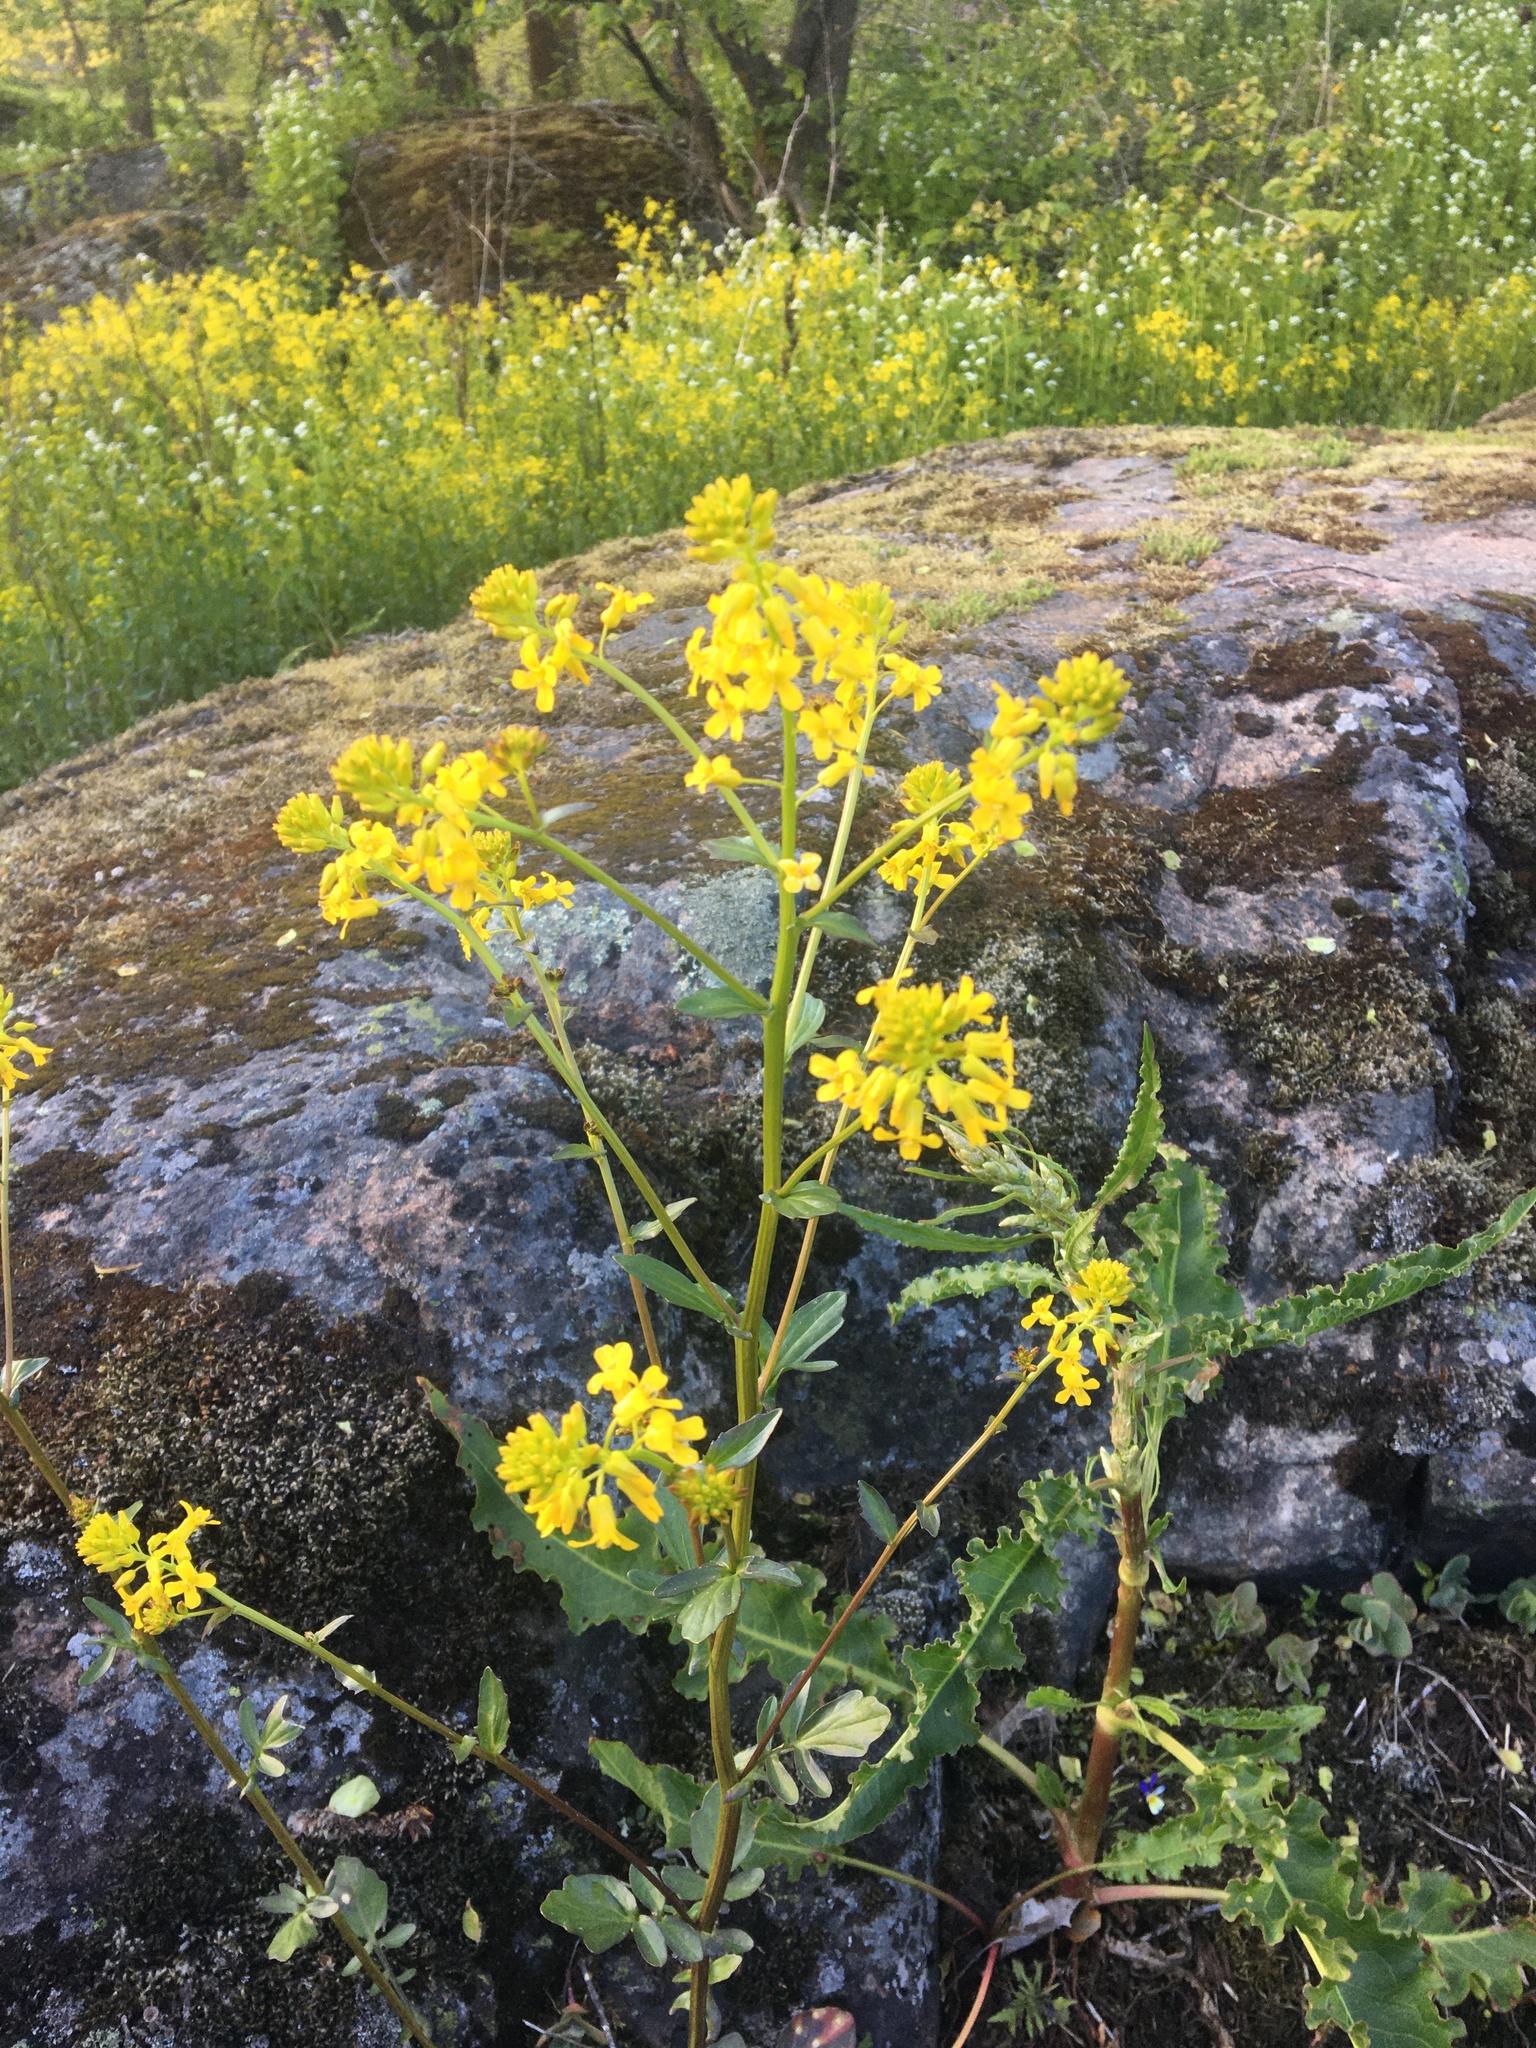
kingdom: Plantae
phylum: Tracheophyta
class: Magnoliopsida
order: Brassicales
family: Brassicaceae
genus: Barbarea
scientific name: Barbarea vulgaris
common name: Cressy-greens
